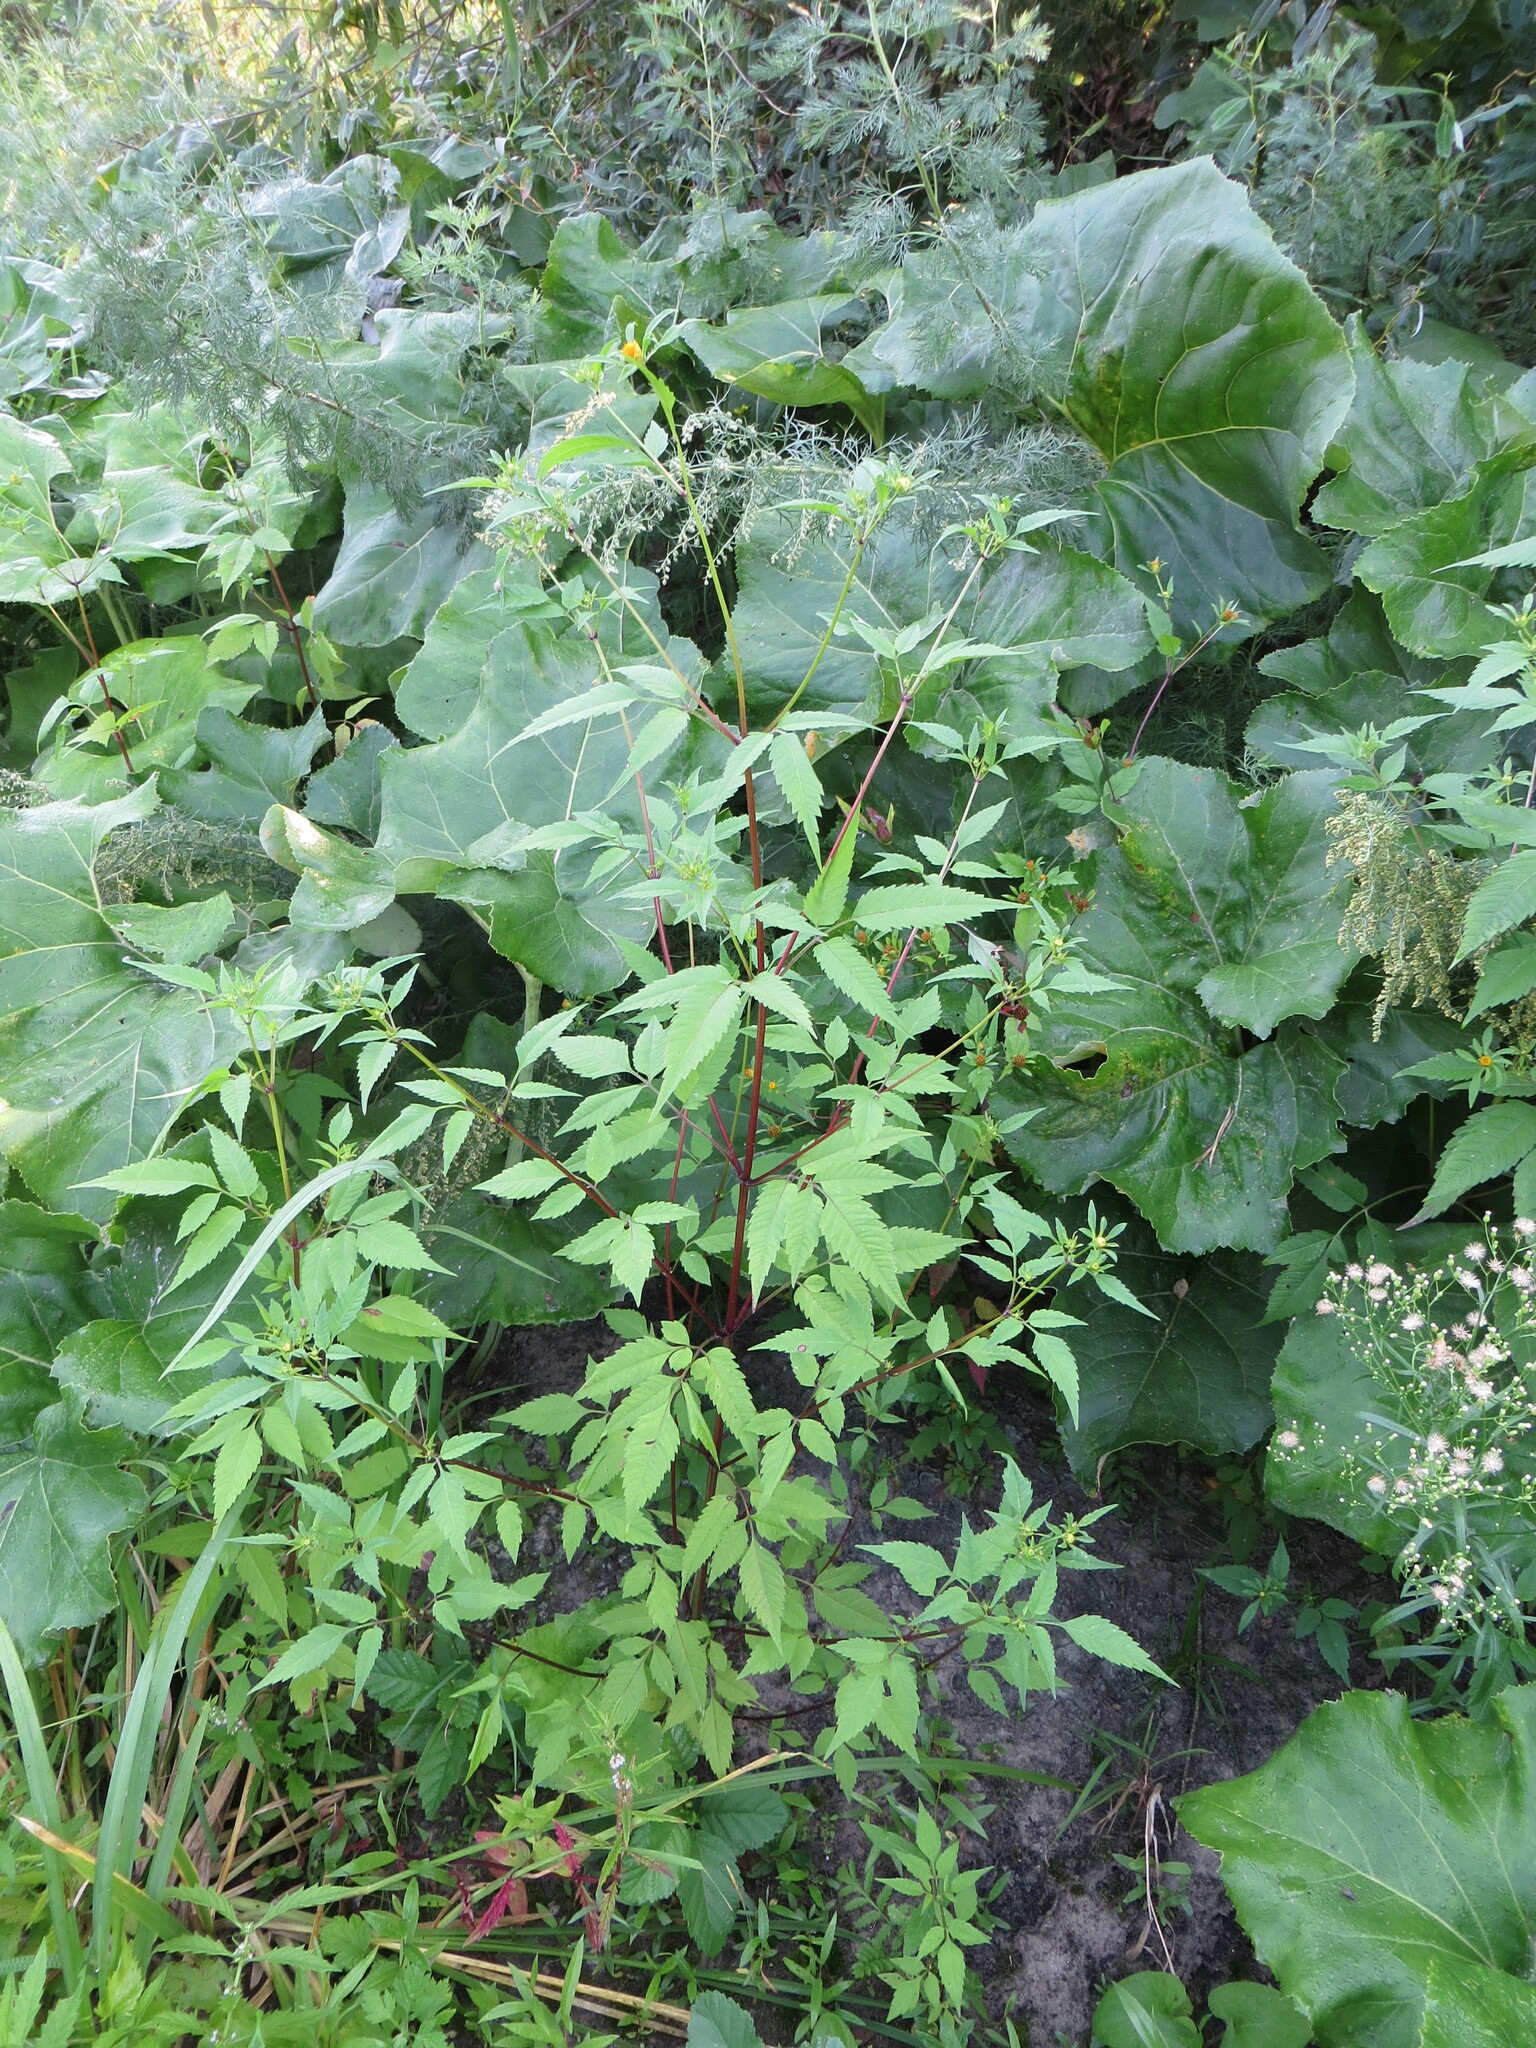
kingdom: Plantae
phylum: Tracheophyta
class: Magnoliopsida
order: Asterales
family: Asteraceae
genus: Bidens
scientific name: Bidens frondosa
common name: Beggarticks
